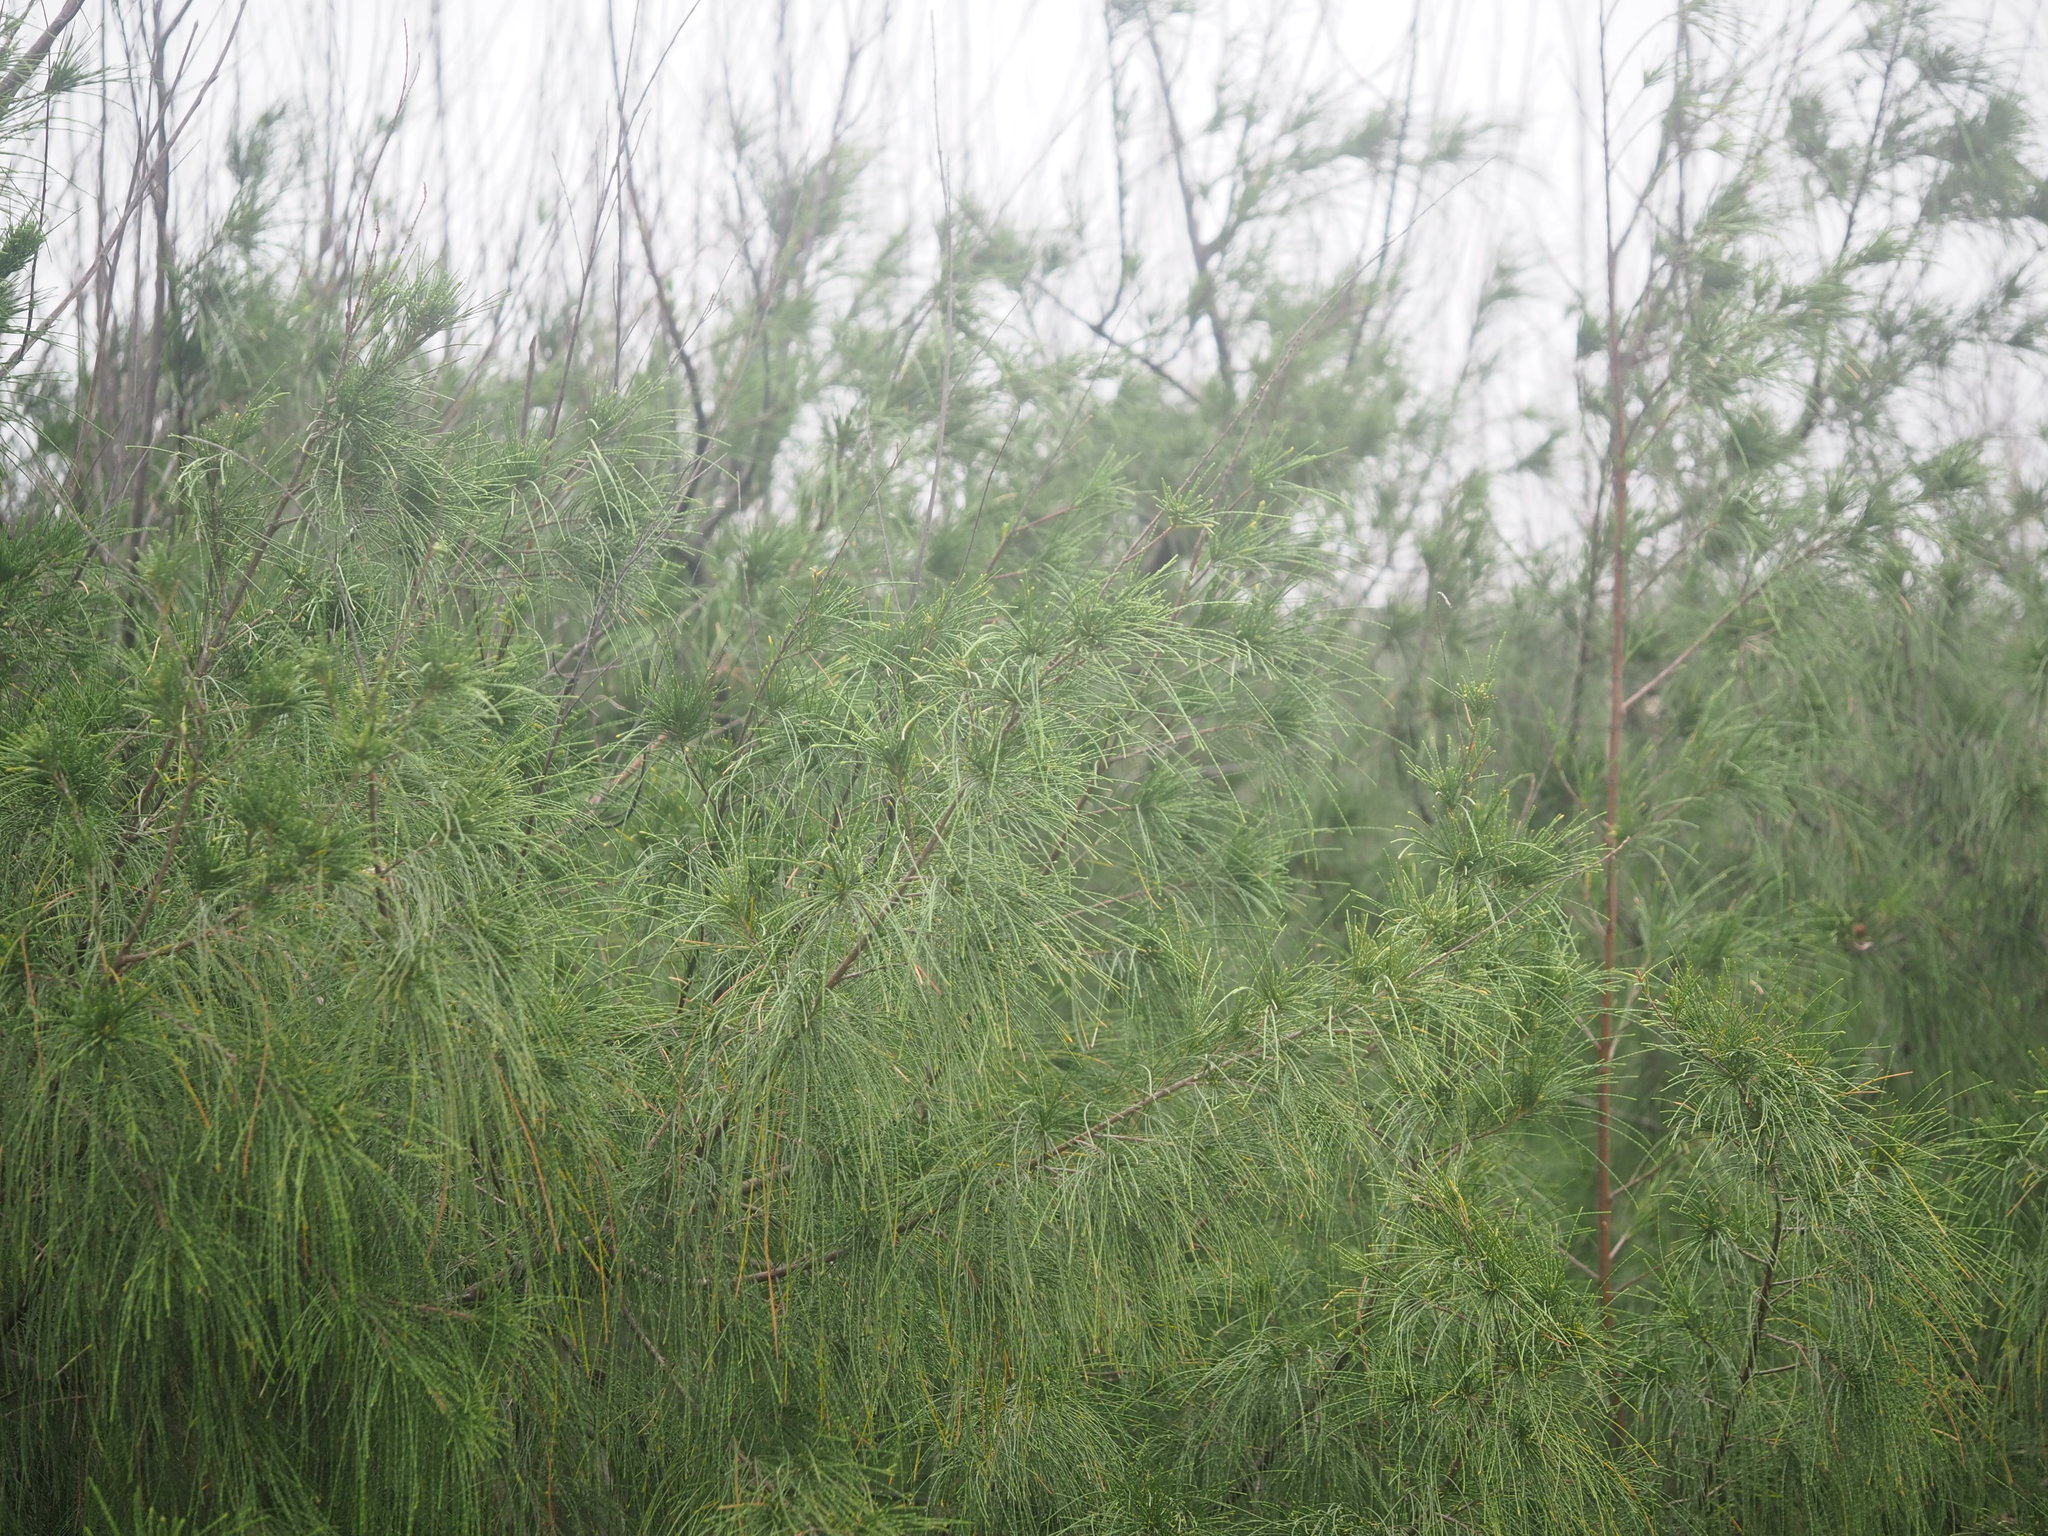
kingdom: Plantae
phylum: Tracheophyta
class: Magnoliopsida
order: Fagales
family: Casuarinaceae
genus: Casuarina
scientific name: Casuarina equisetifolia
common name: Beach sheoak
